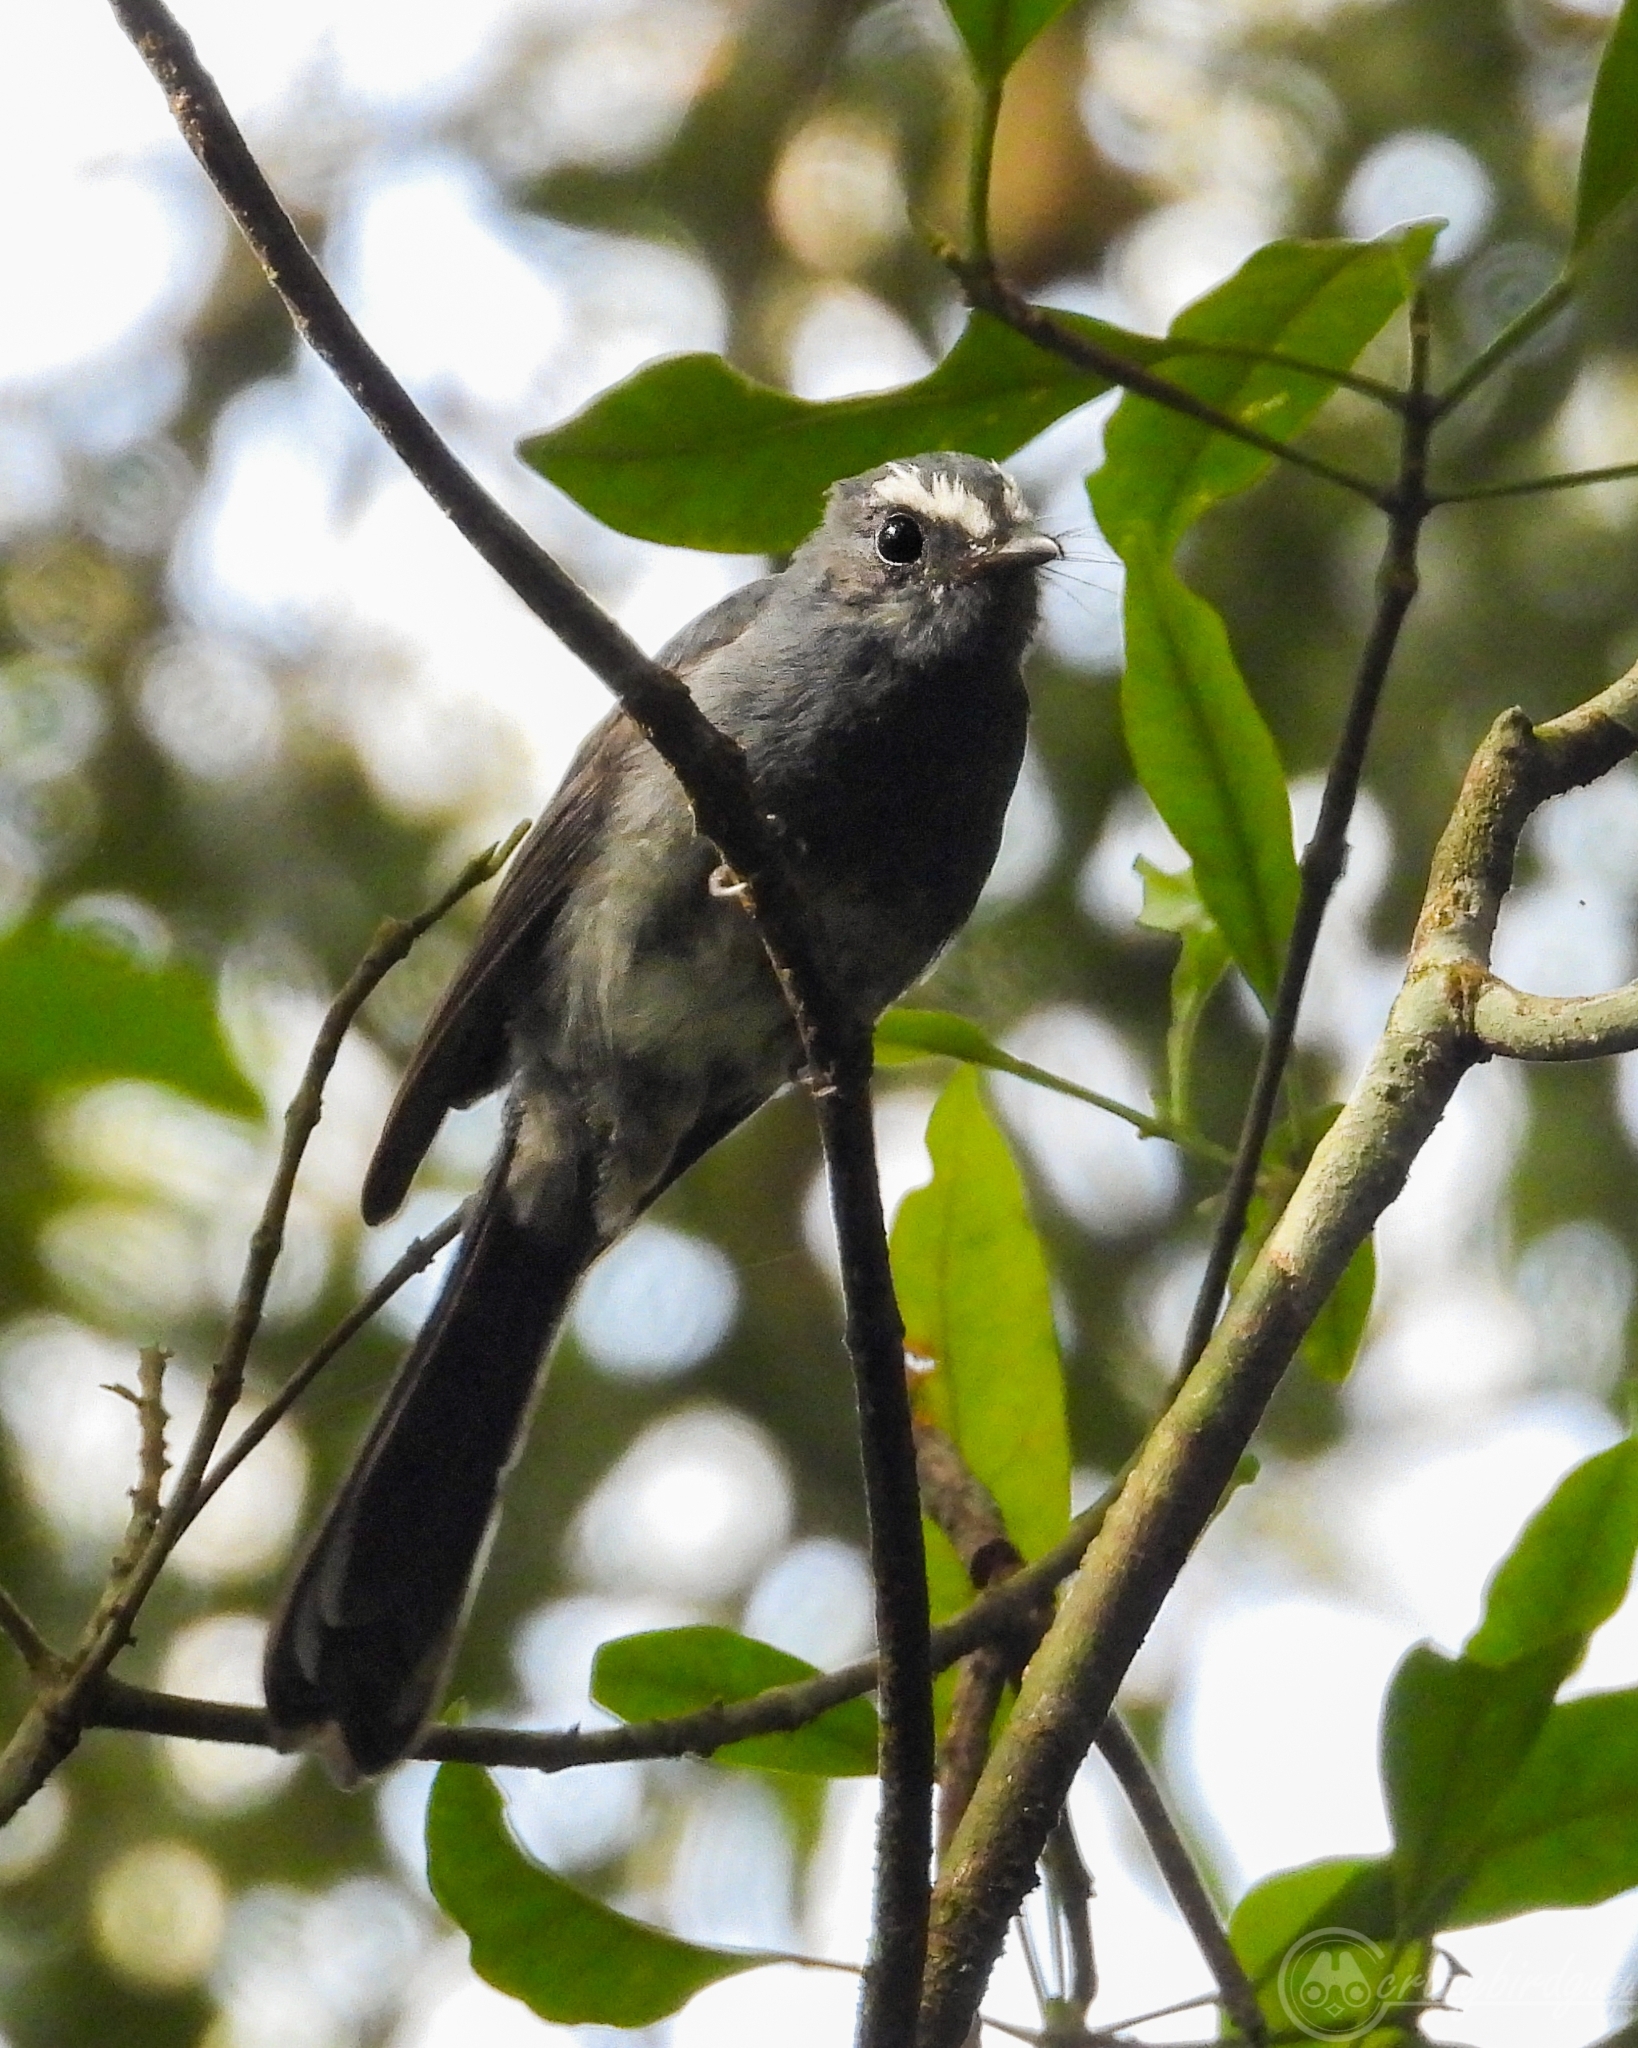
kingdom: Animalia
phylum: Chordata
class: Aves
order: Passeriformes
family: Rhipiduridae
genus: Rhipidura
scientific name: Rhipidura euryura
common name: White-bellied fantail
